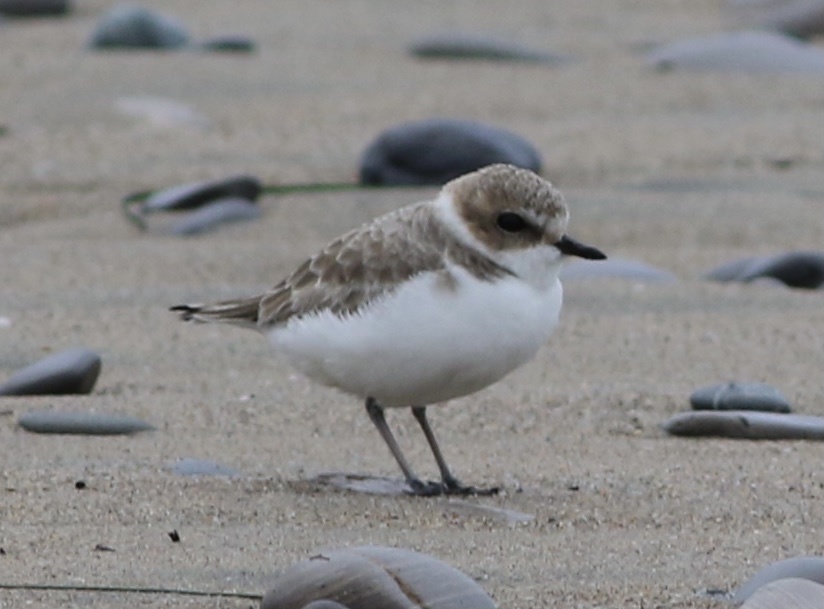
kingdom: Animalia
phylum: Chordata
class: Aves
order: Charadriiformes
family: Charadriidae
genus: Anarhynchus
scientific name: Anarhynchus
